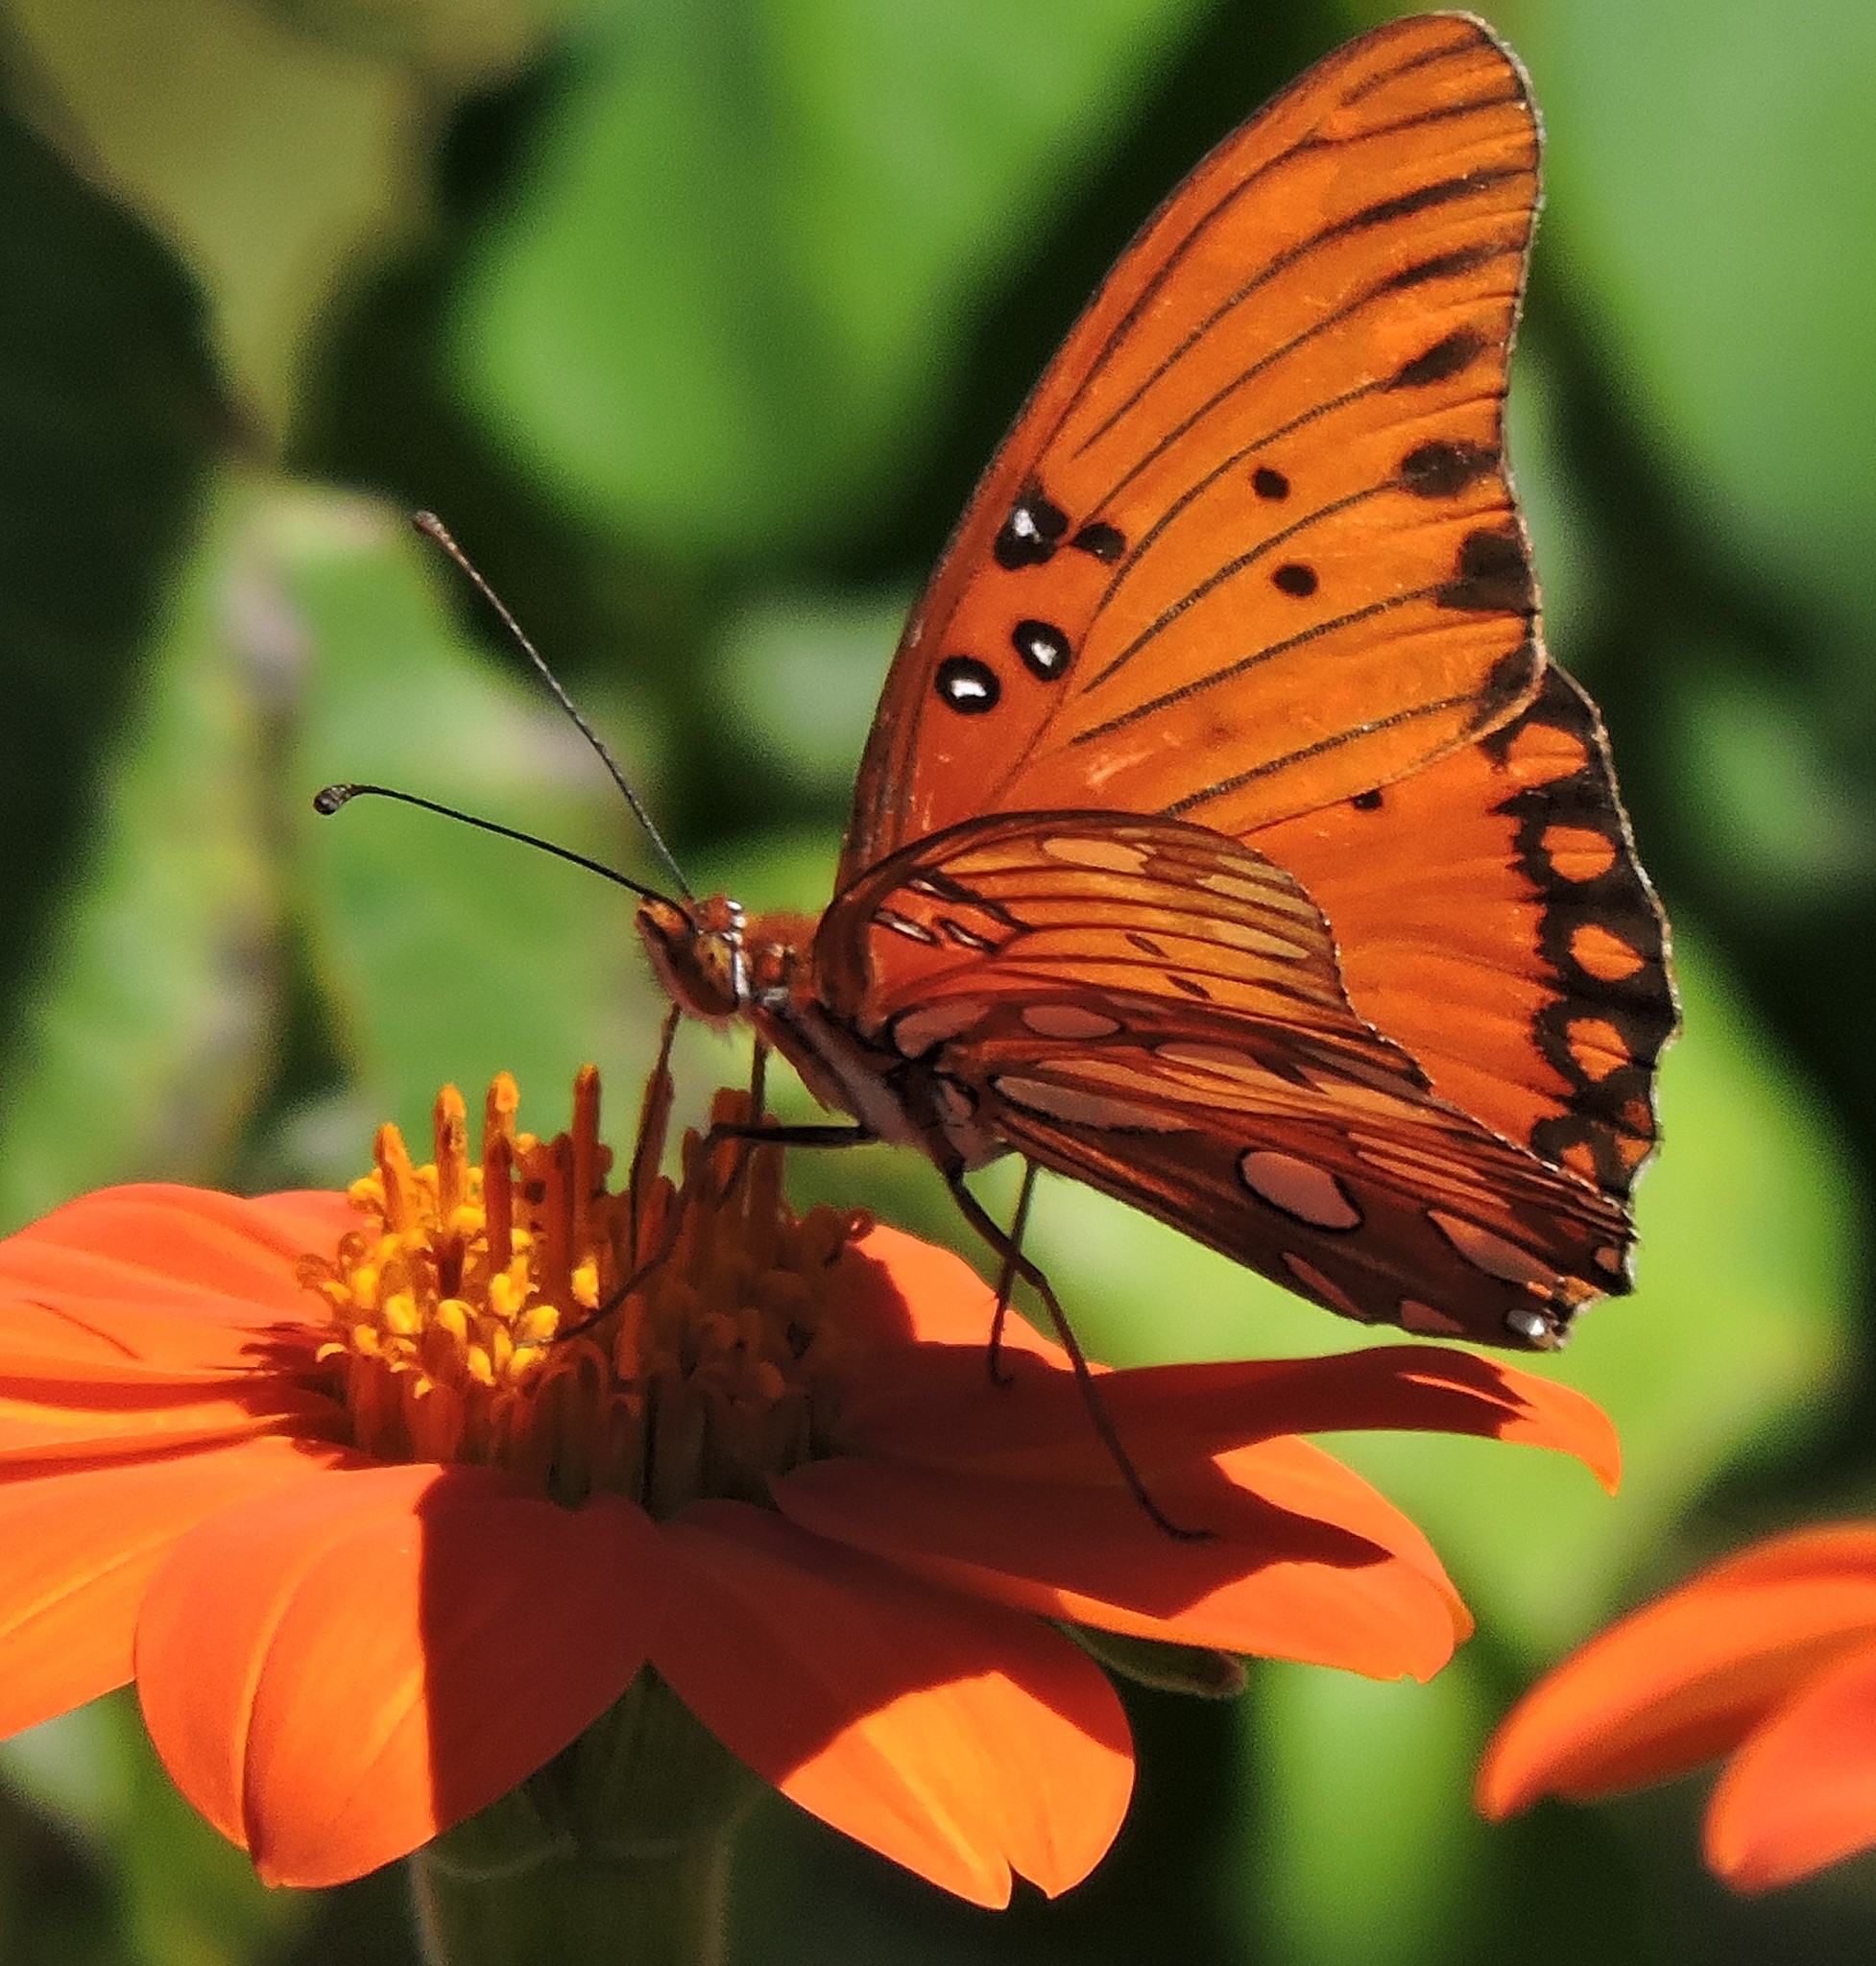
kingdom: Animalia
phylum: Arthropoda
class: Insecta
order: Lepidoptera
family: Nymphalidae
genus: Dione
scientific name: Dione vanillae
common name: Gulf fritillary
